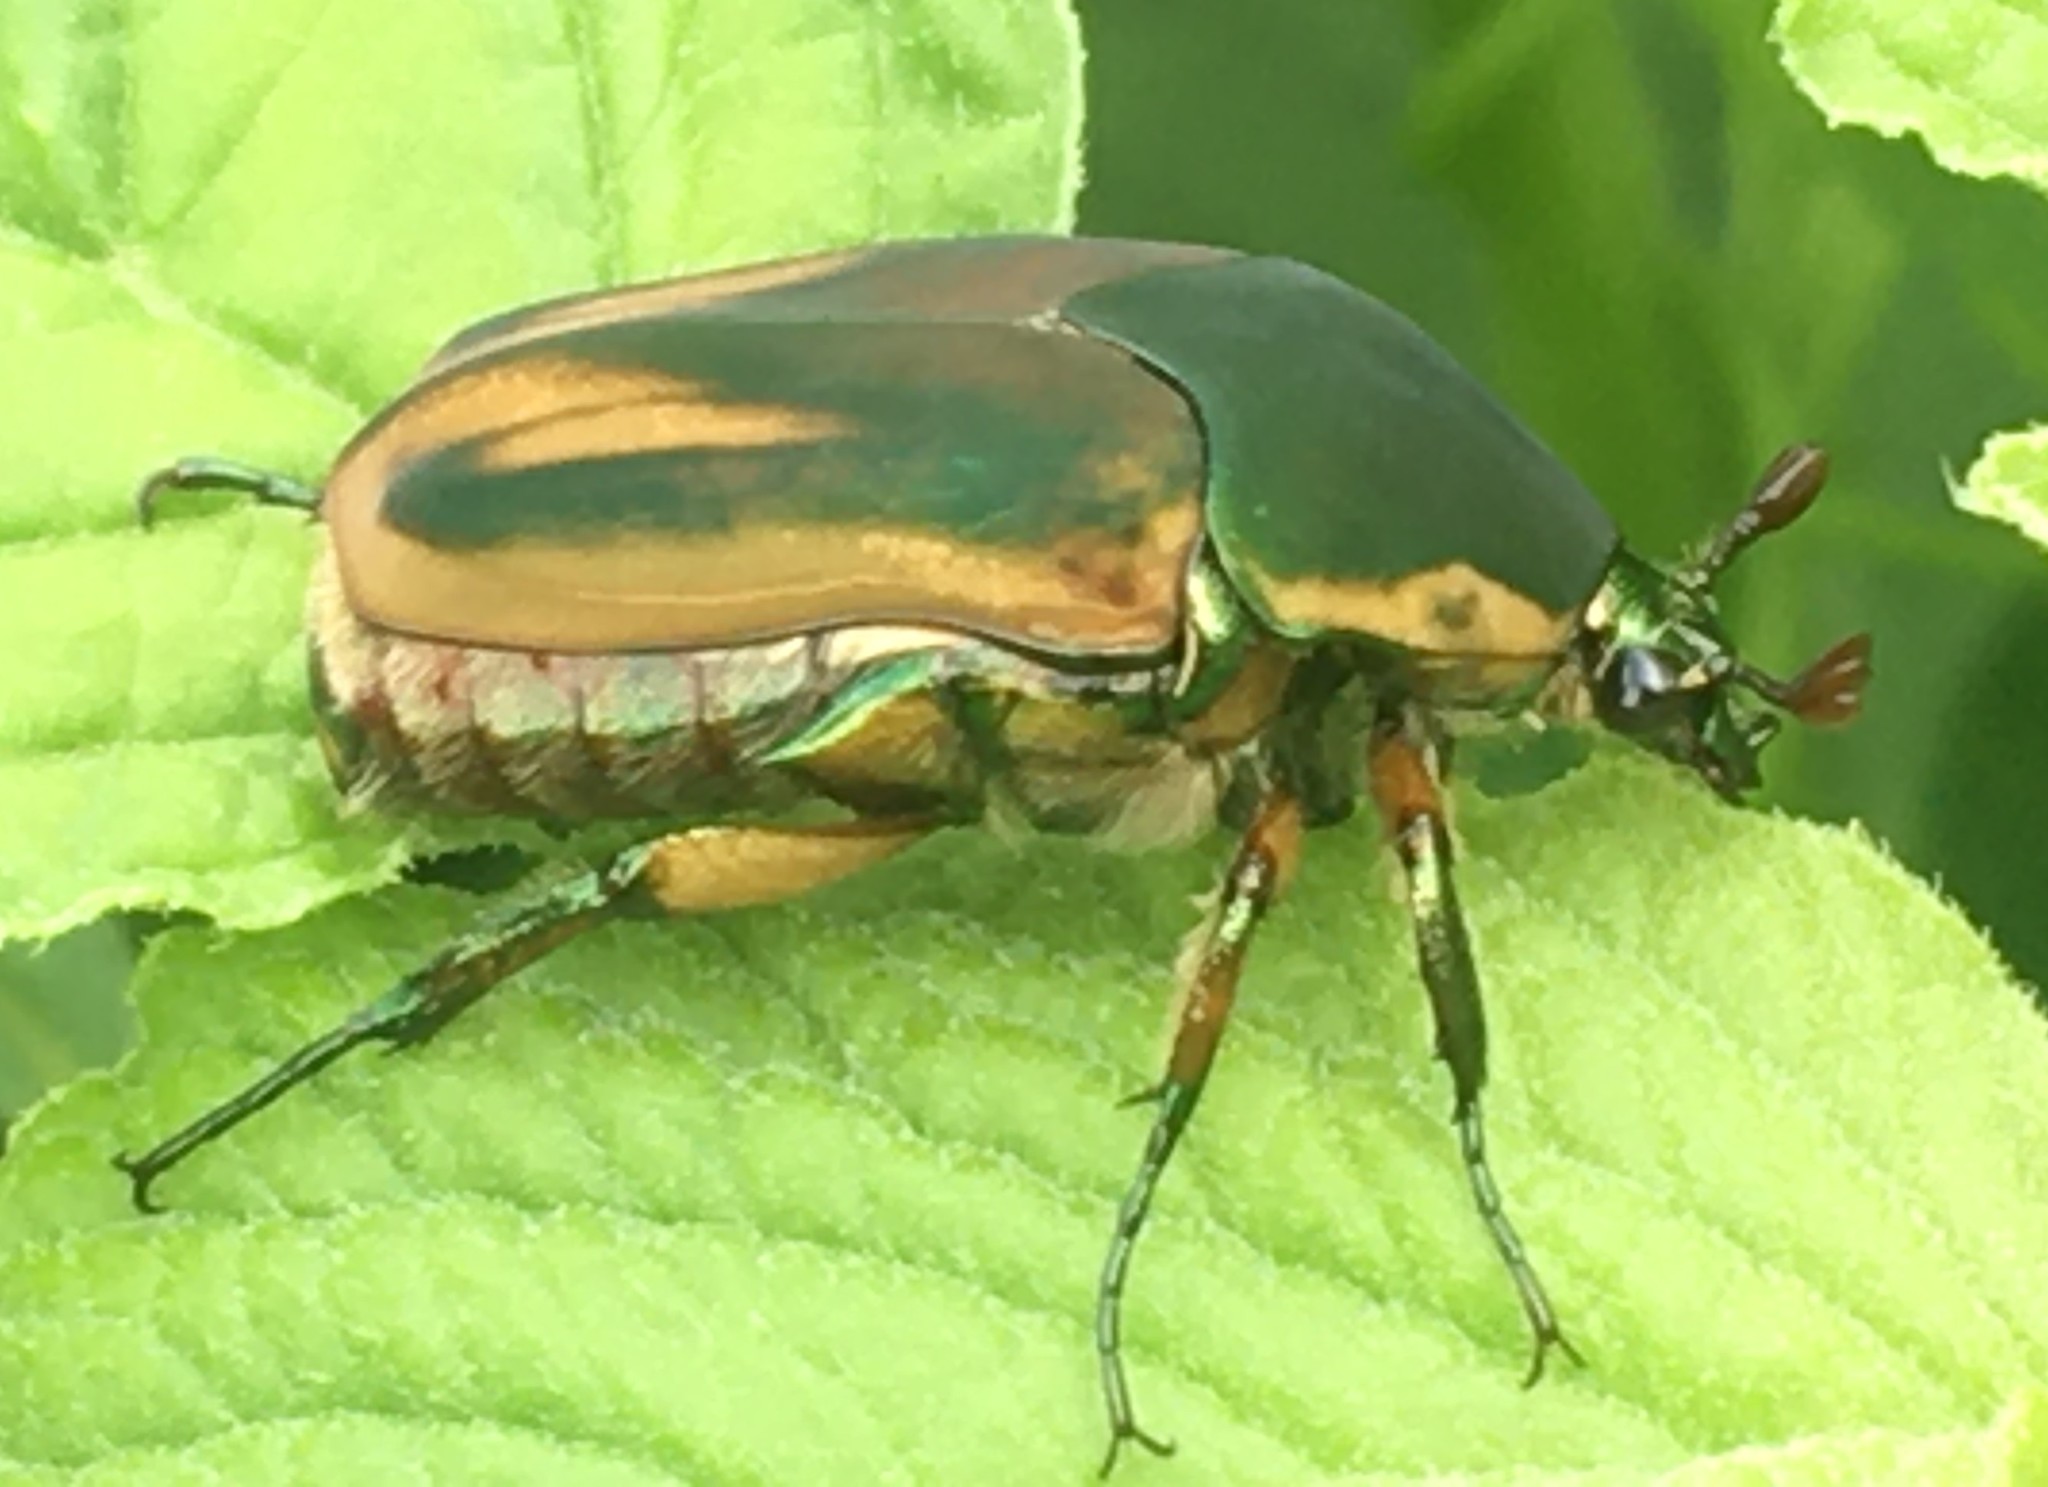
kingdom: Animalia
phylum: Arthropoda
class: Insecta
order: Coleoptera
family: Scarabaeidae
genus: Cotinis
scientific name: Cotinis nitida
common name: Common green june beetle
